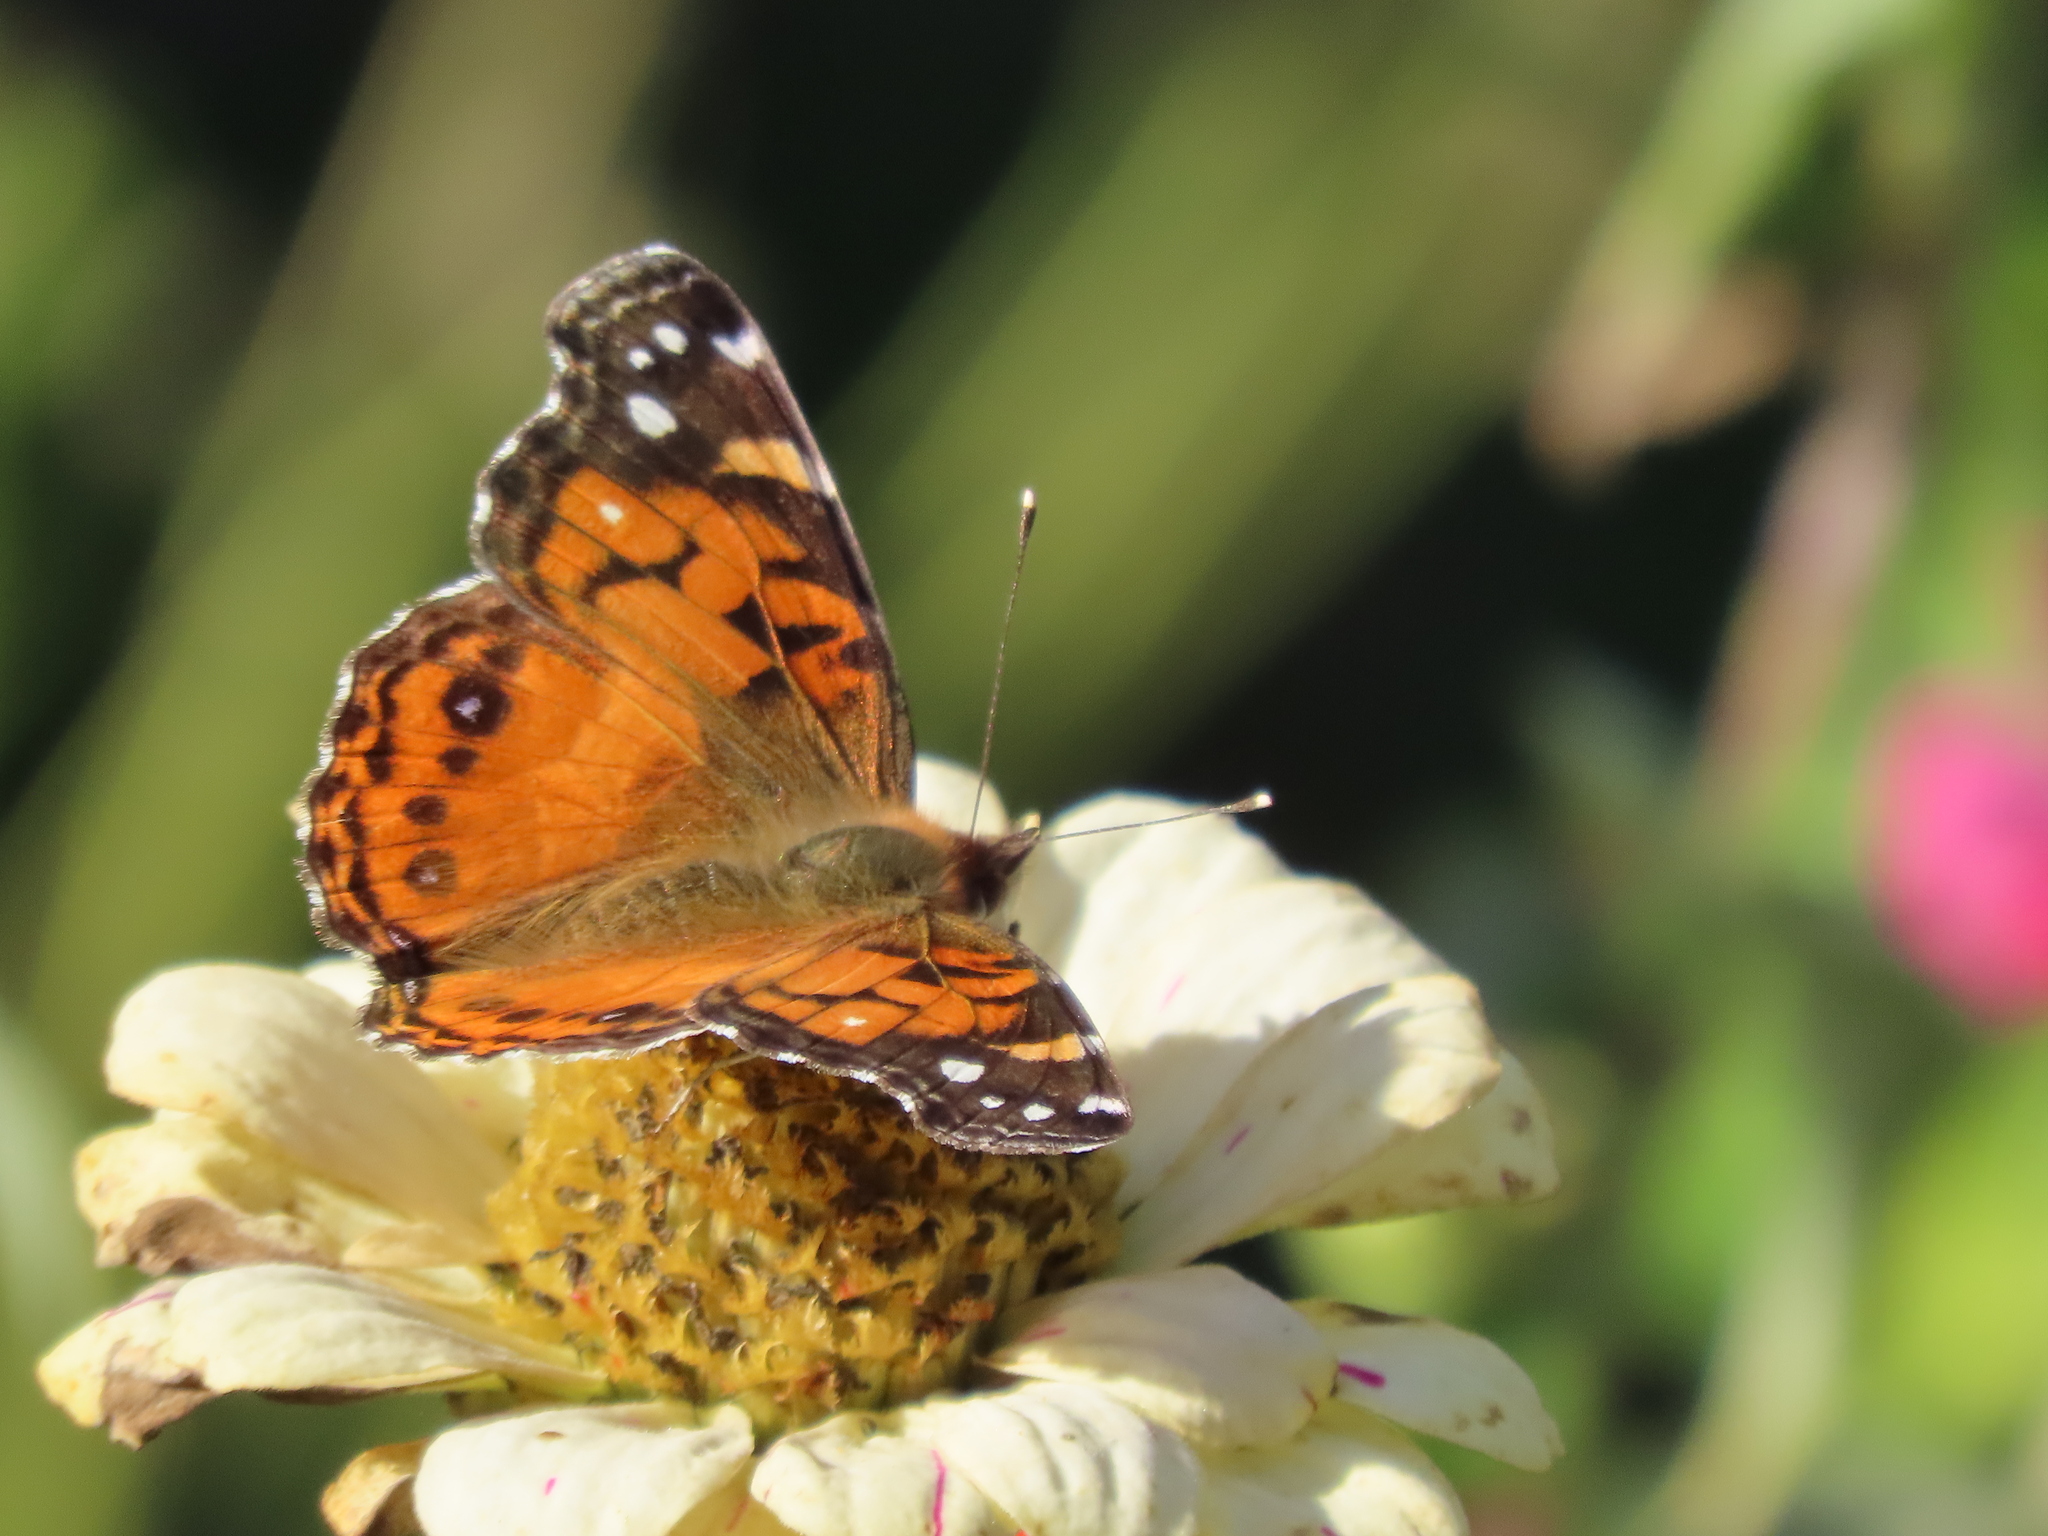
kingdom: Animalia
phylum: Arthropoda
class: Insecta
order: Lepidoptera
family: Nymphalidae
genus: Vanessa
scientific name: Vanessa virginiensis
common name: American lady
